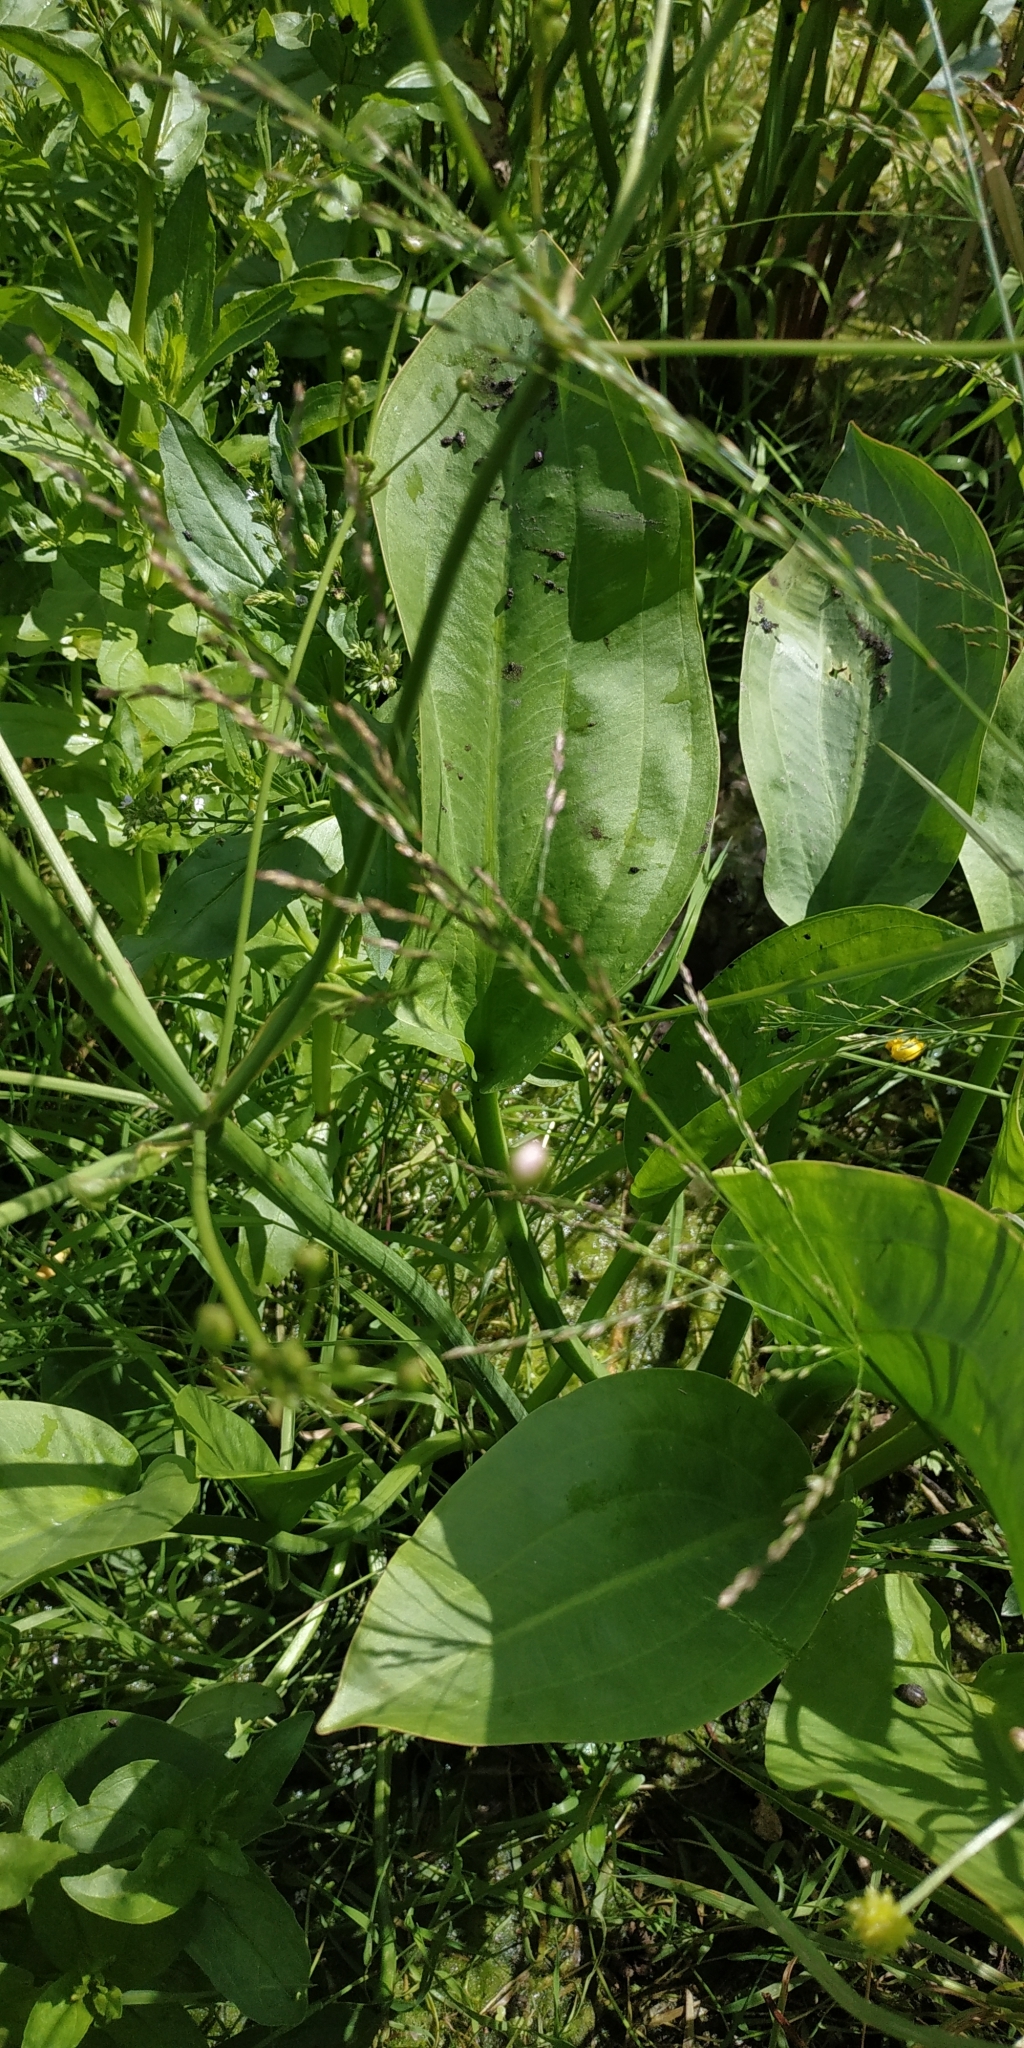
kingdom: Plantae
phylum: Tracheophyta
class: Liliopsida
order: Alismatales
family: Alismataceae
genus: Alisma
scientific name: Alisma plantago-aquatica
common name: Water-plantain
